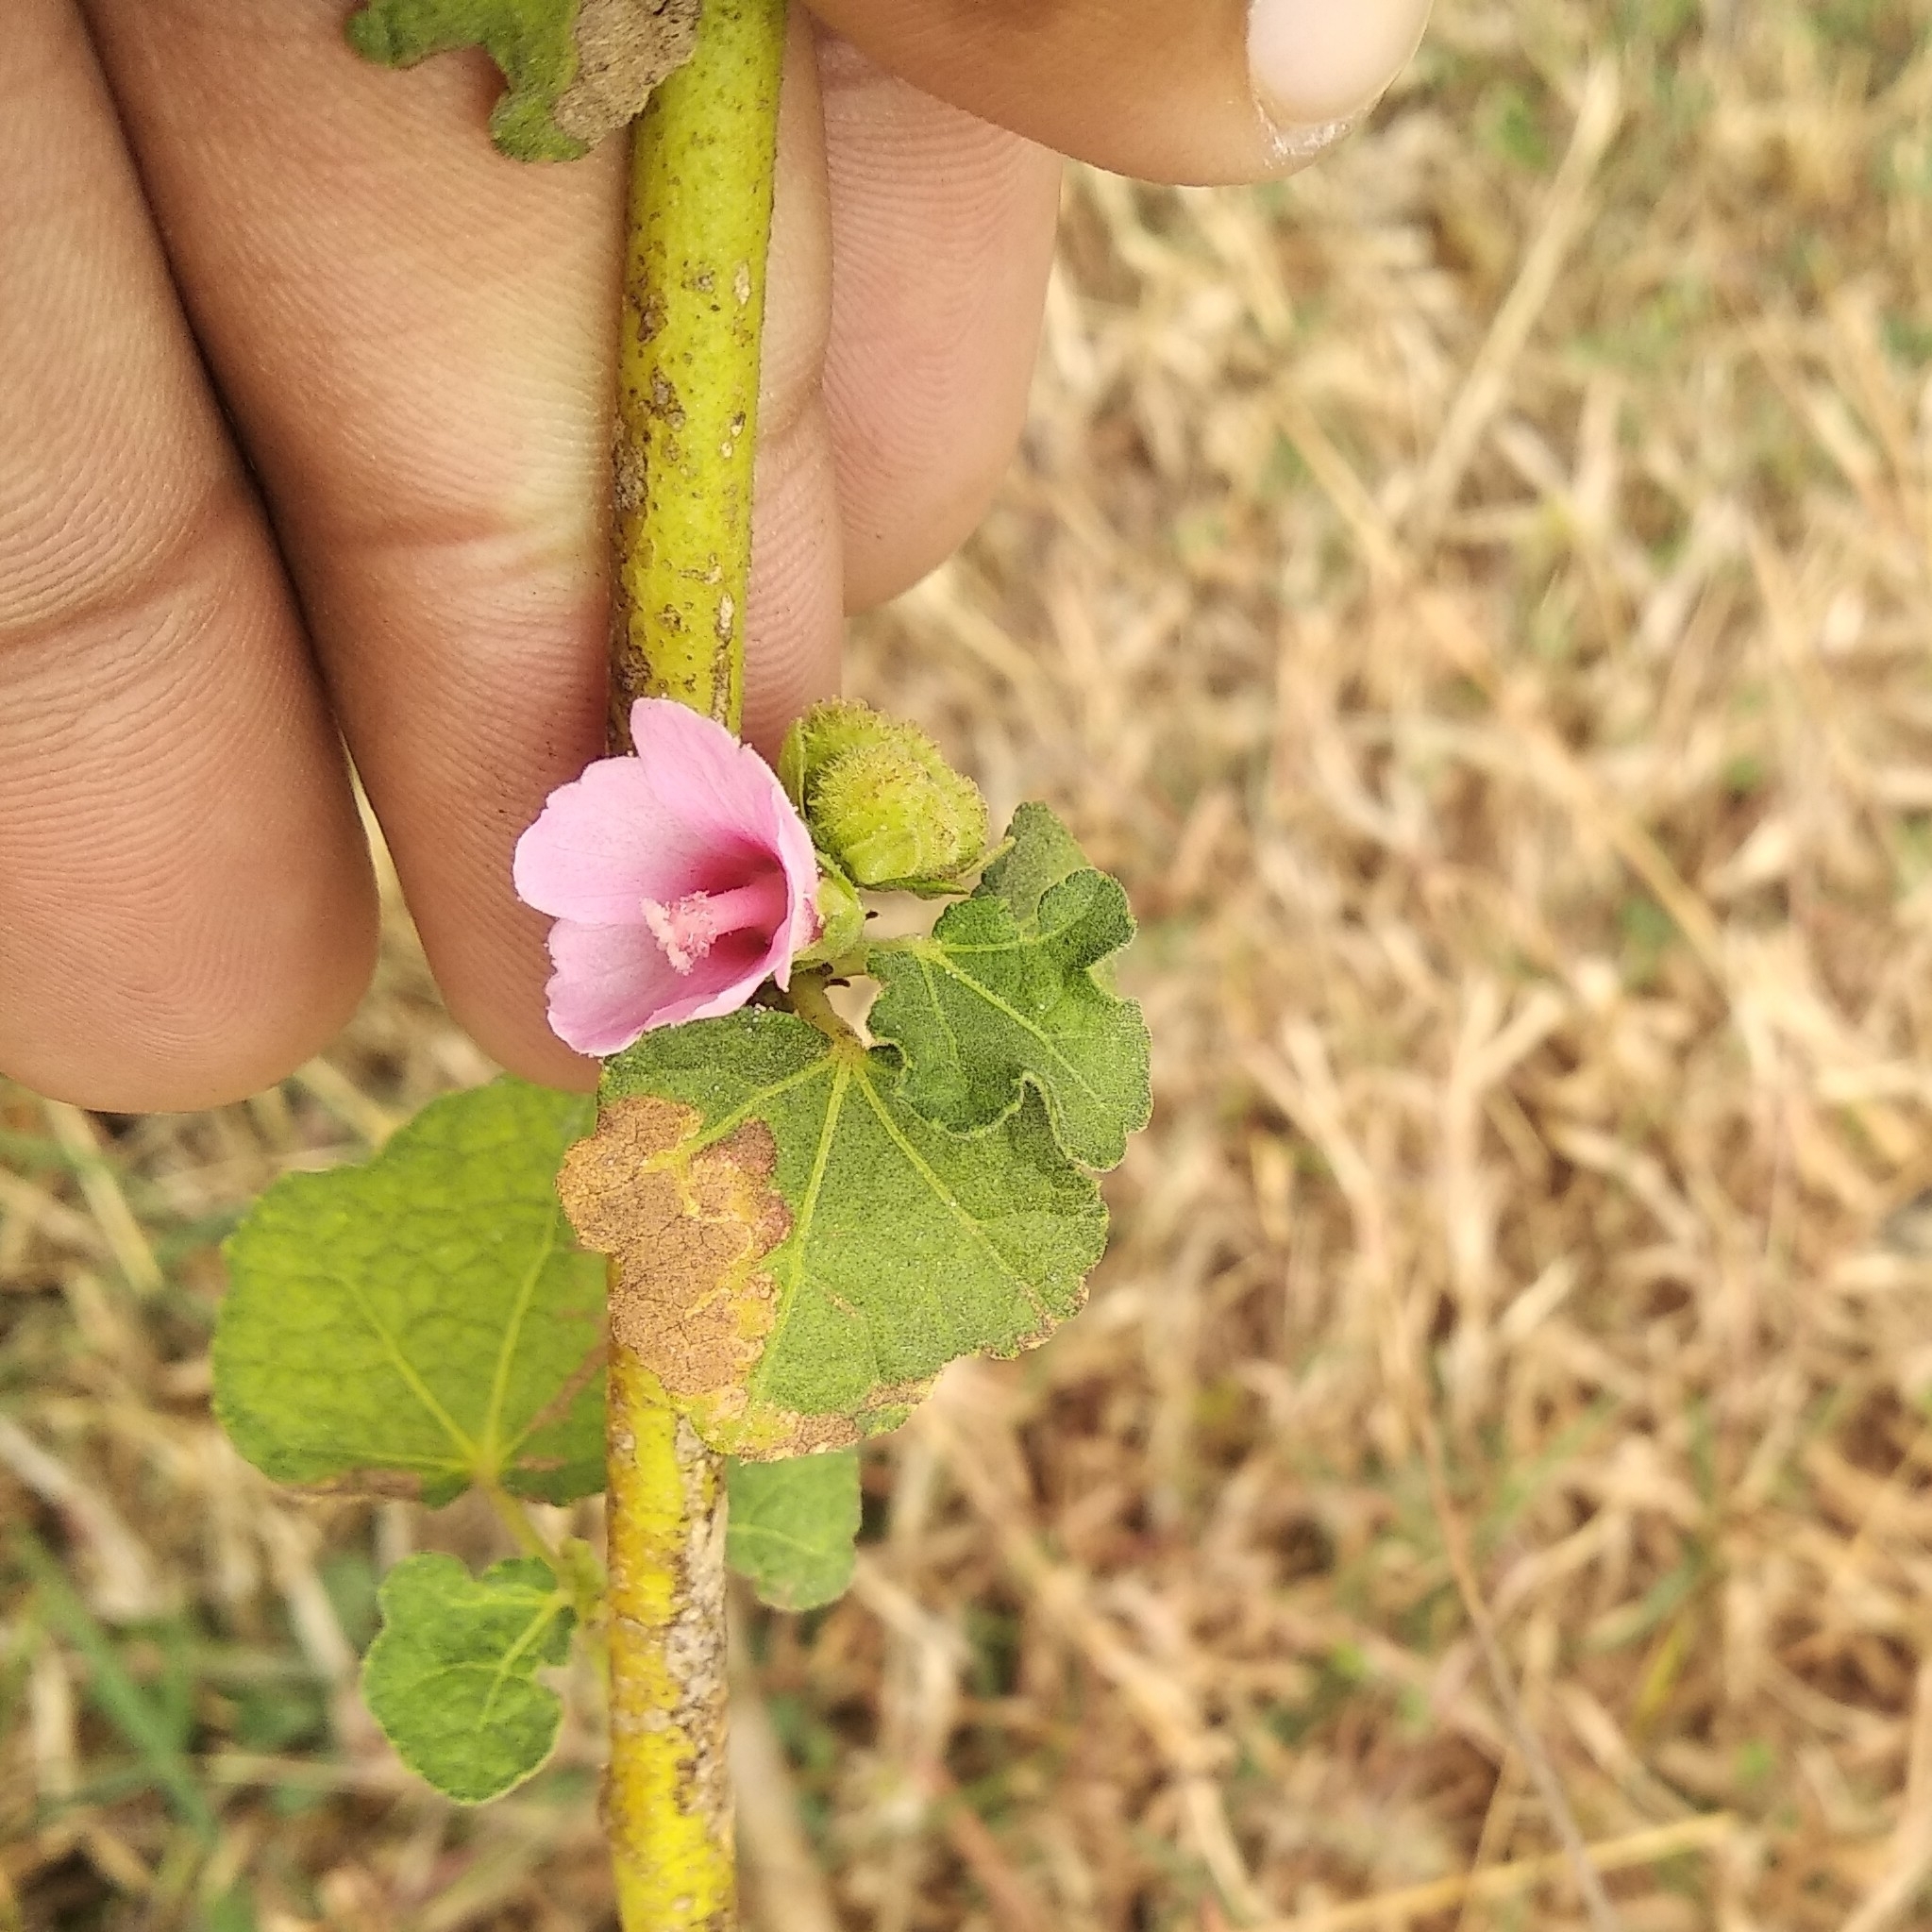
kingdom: Plantae
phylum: Tracheophyta
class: Magnoliopsida
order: Malvales
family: Malvaceae
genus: Urena
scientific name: Urena lobata
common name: Caesarweed
